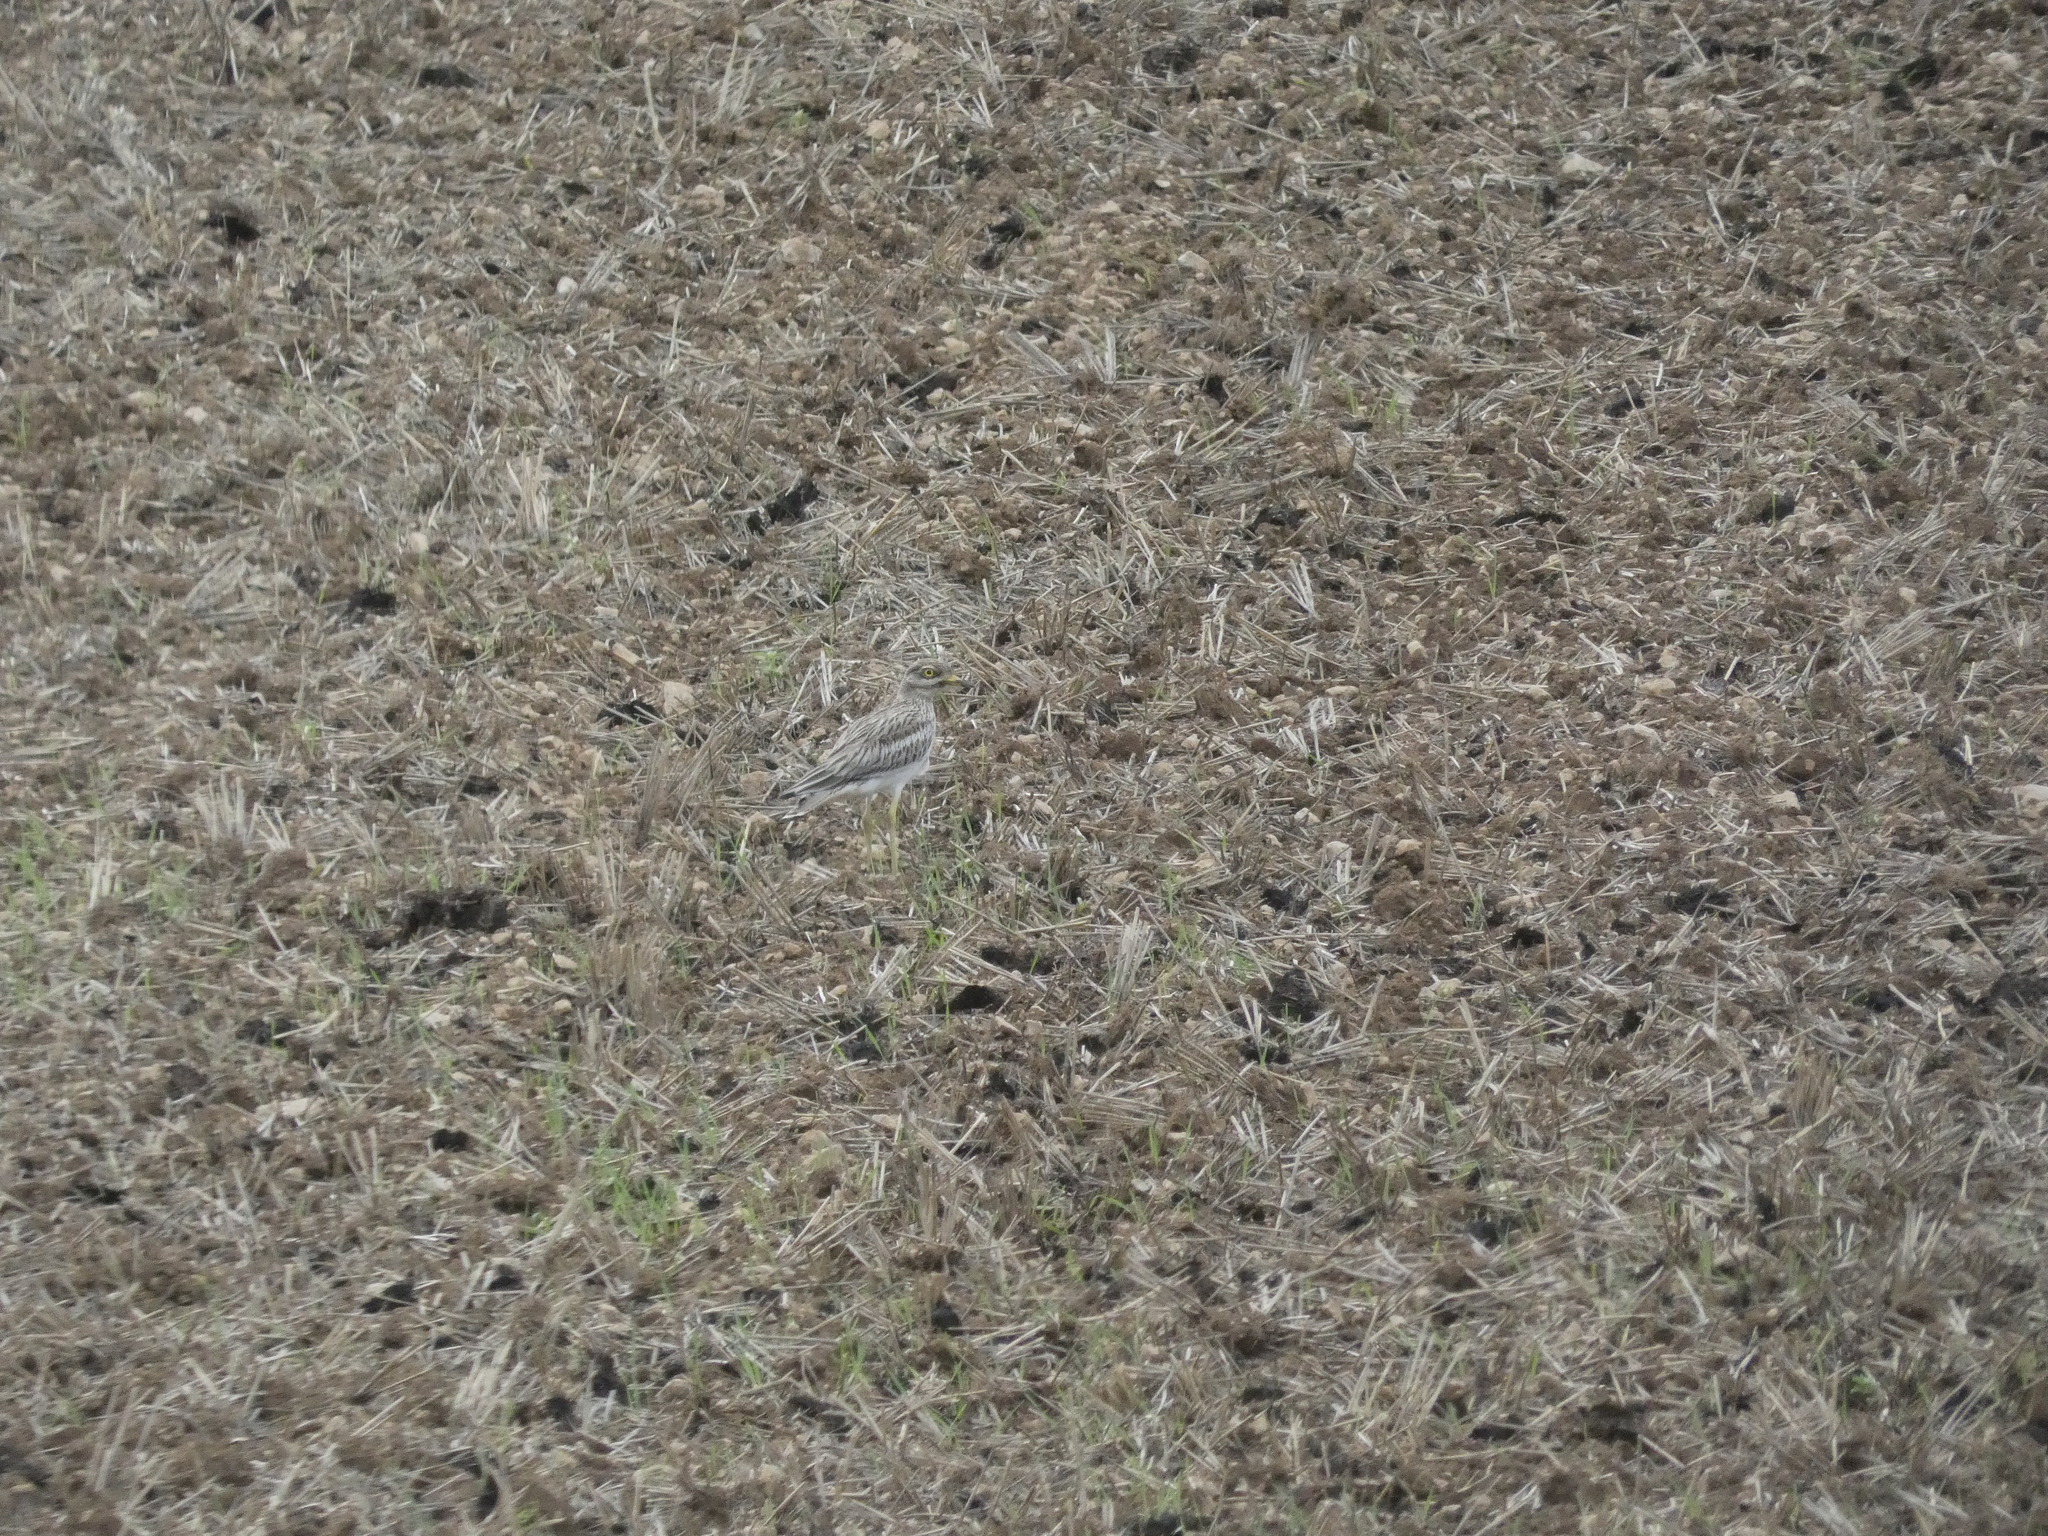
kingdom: Animalia
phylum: Chordata
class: Aves
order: Charadriiformes
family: Burhinidae
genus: Burhinus
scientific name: Burhinus oedicnemus
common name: Eurasian stone-curlew
